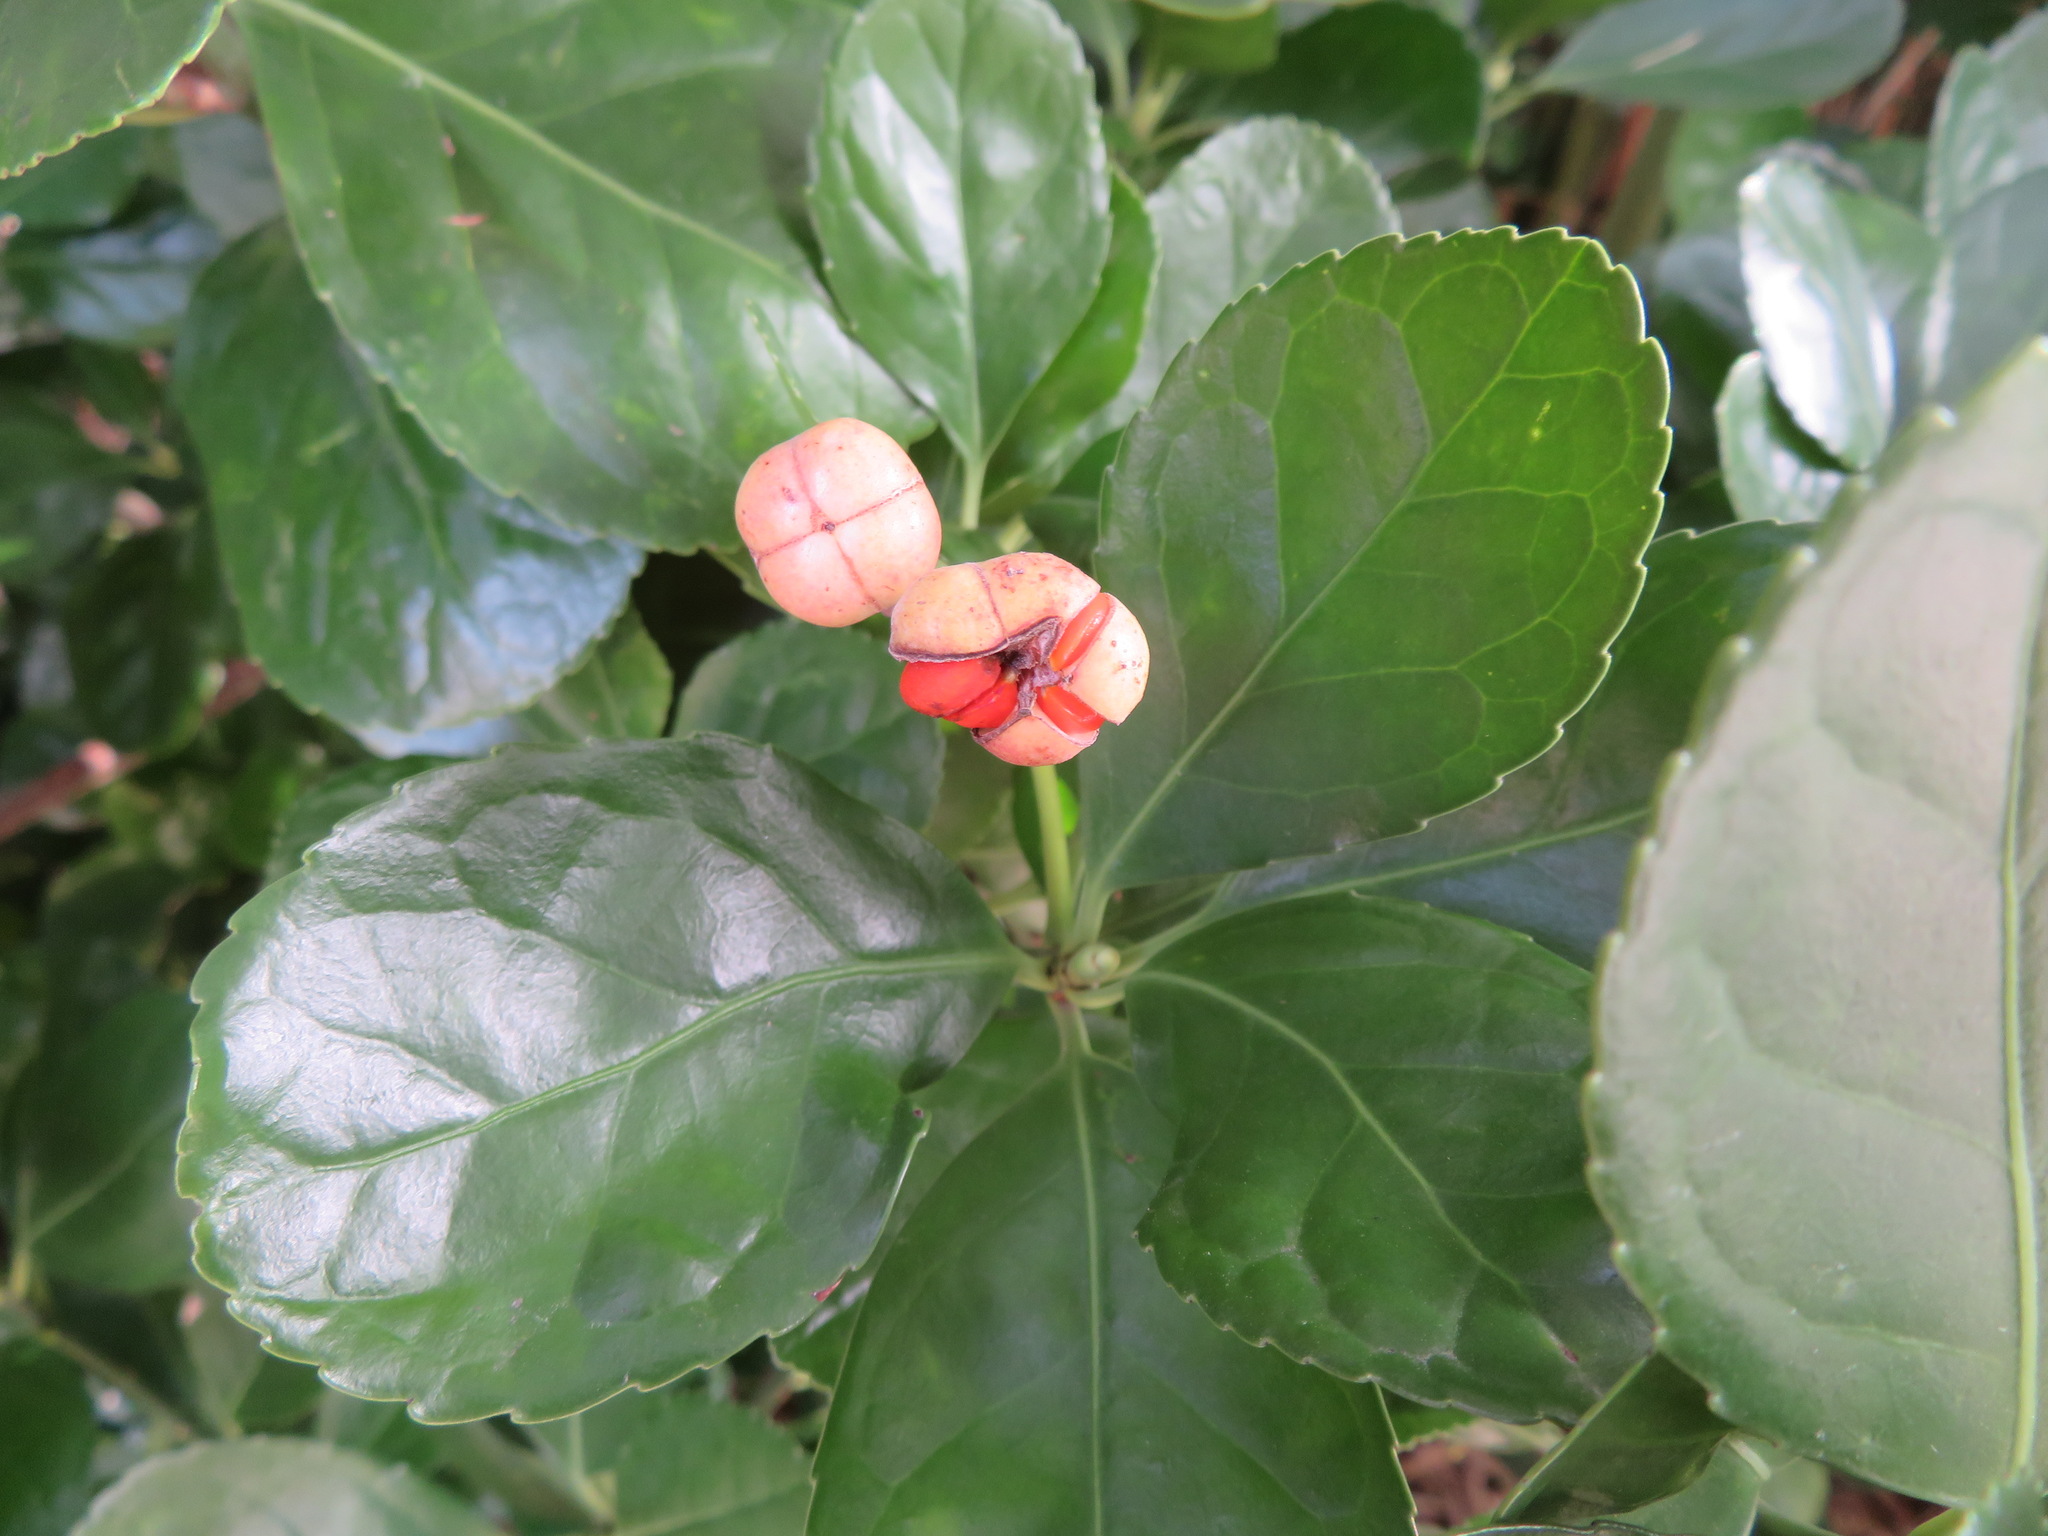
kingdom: Plantae
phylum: Tracheophyta
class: Magnoliopsida
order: Celastrales
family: Celastraceae
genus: Euonymus
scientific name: Euonymus japonicus
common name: Japanese spindletree
